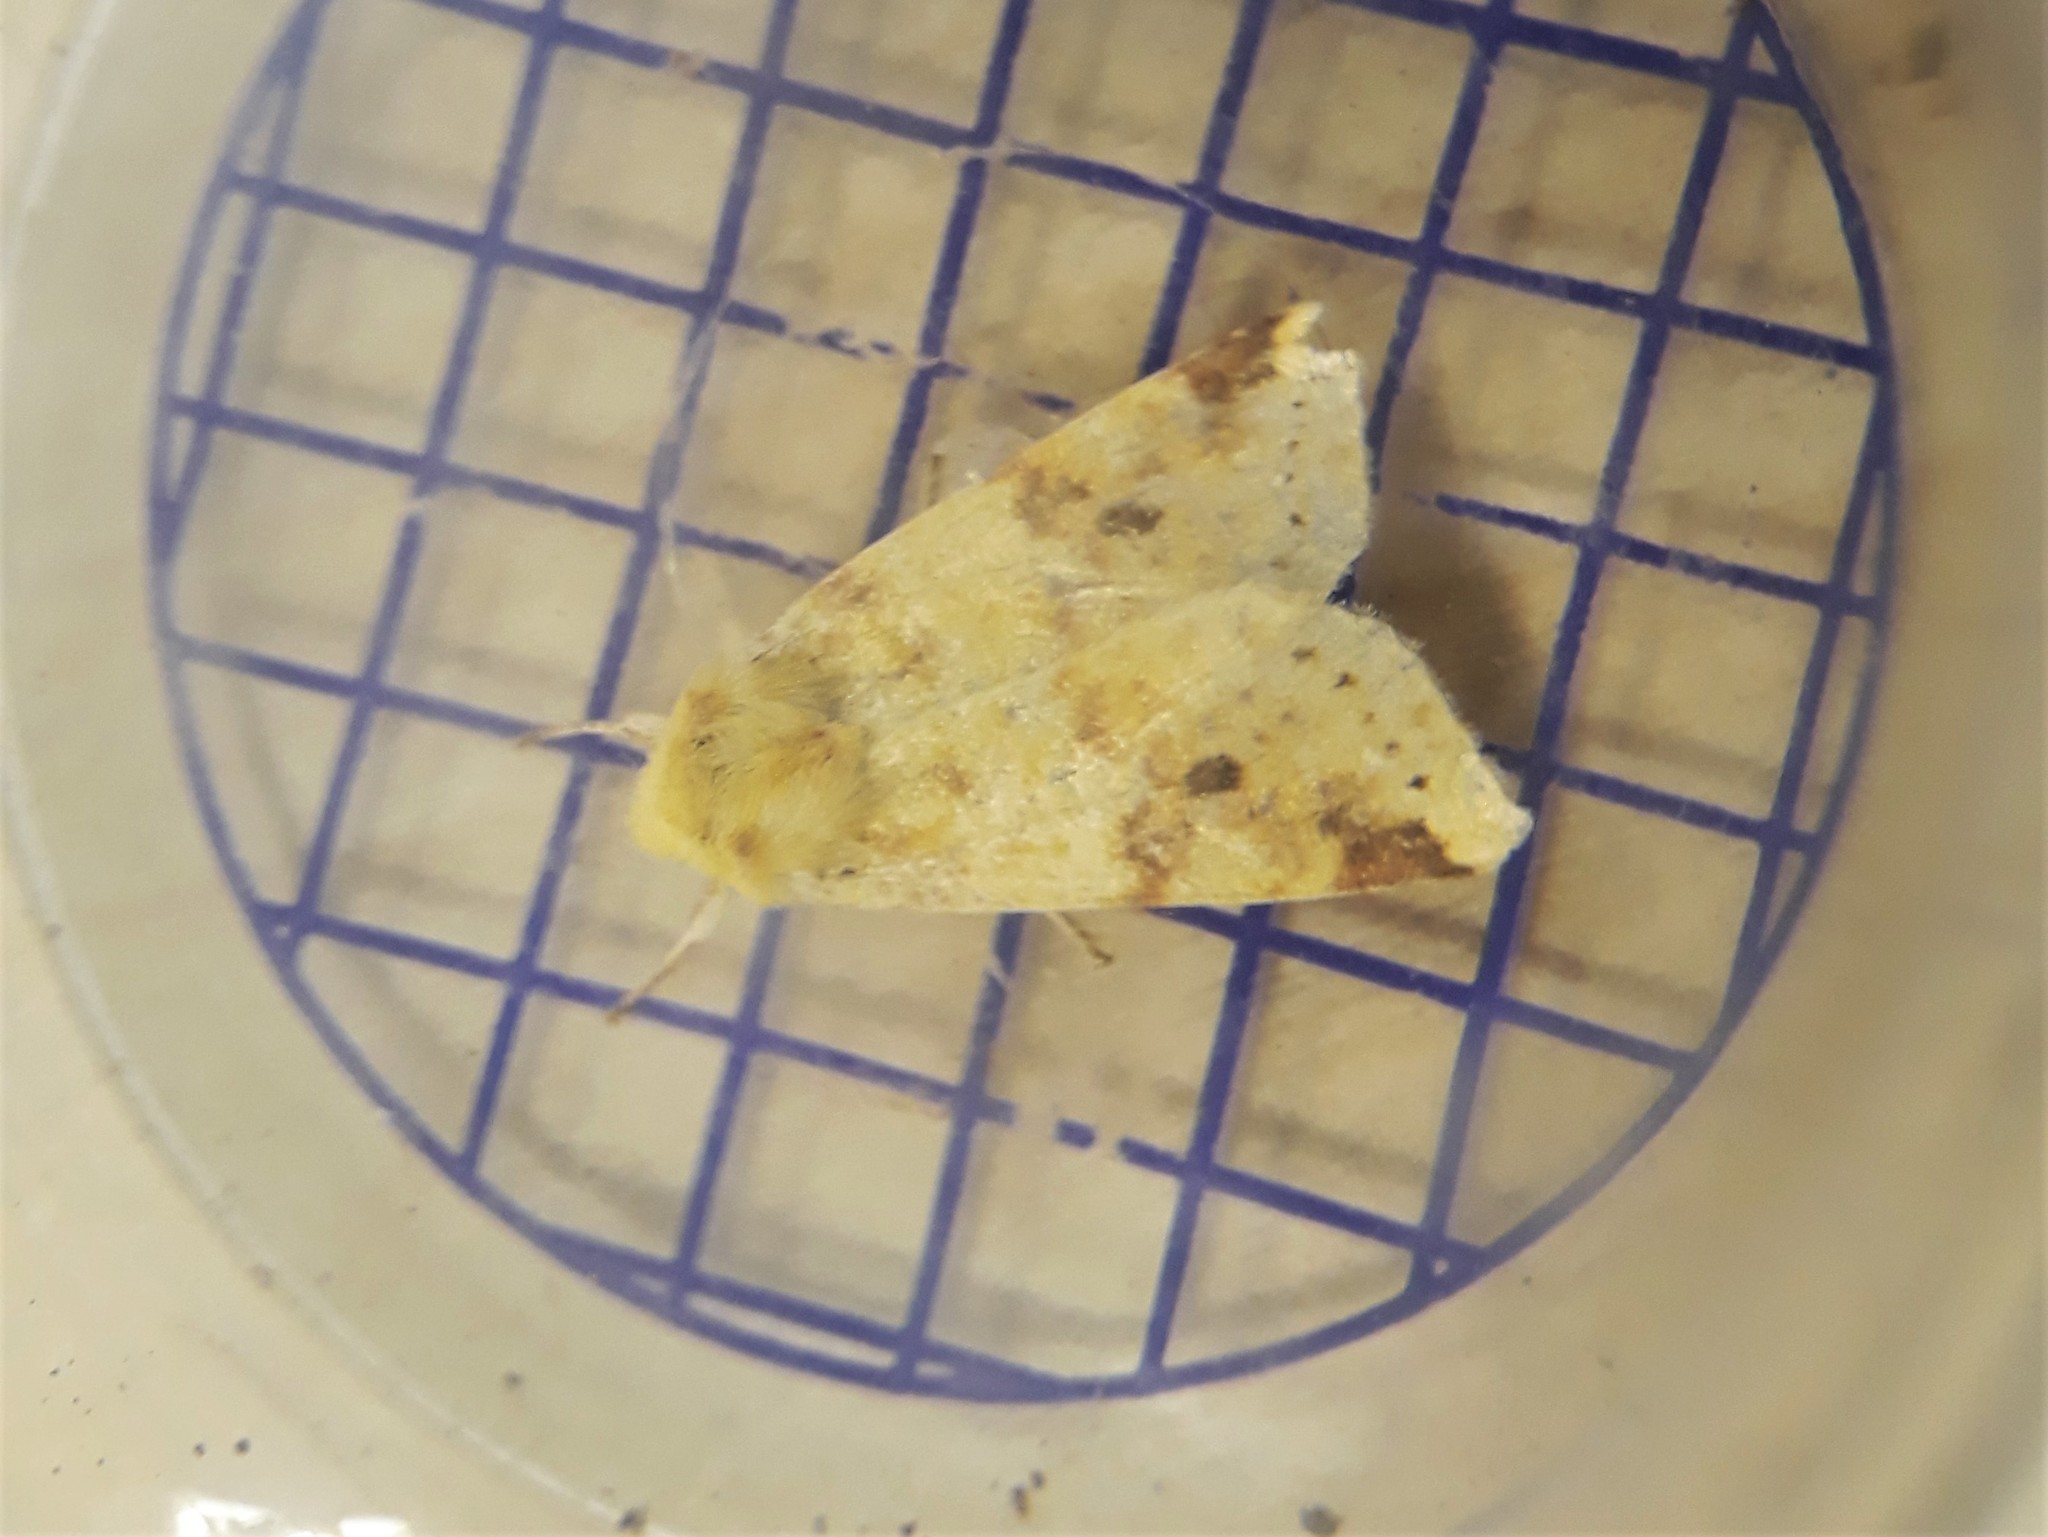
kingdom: Animalia
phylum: Arthropoda
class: Insecta
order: Lepidoptera
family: Noctuidae
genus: Xanthia
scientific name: Xanthia icteritia
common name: The sallow
